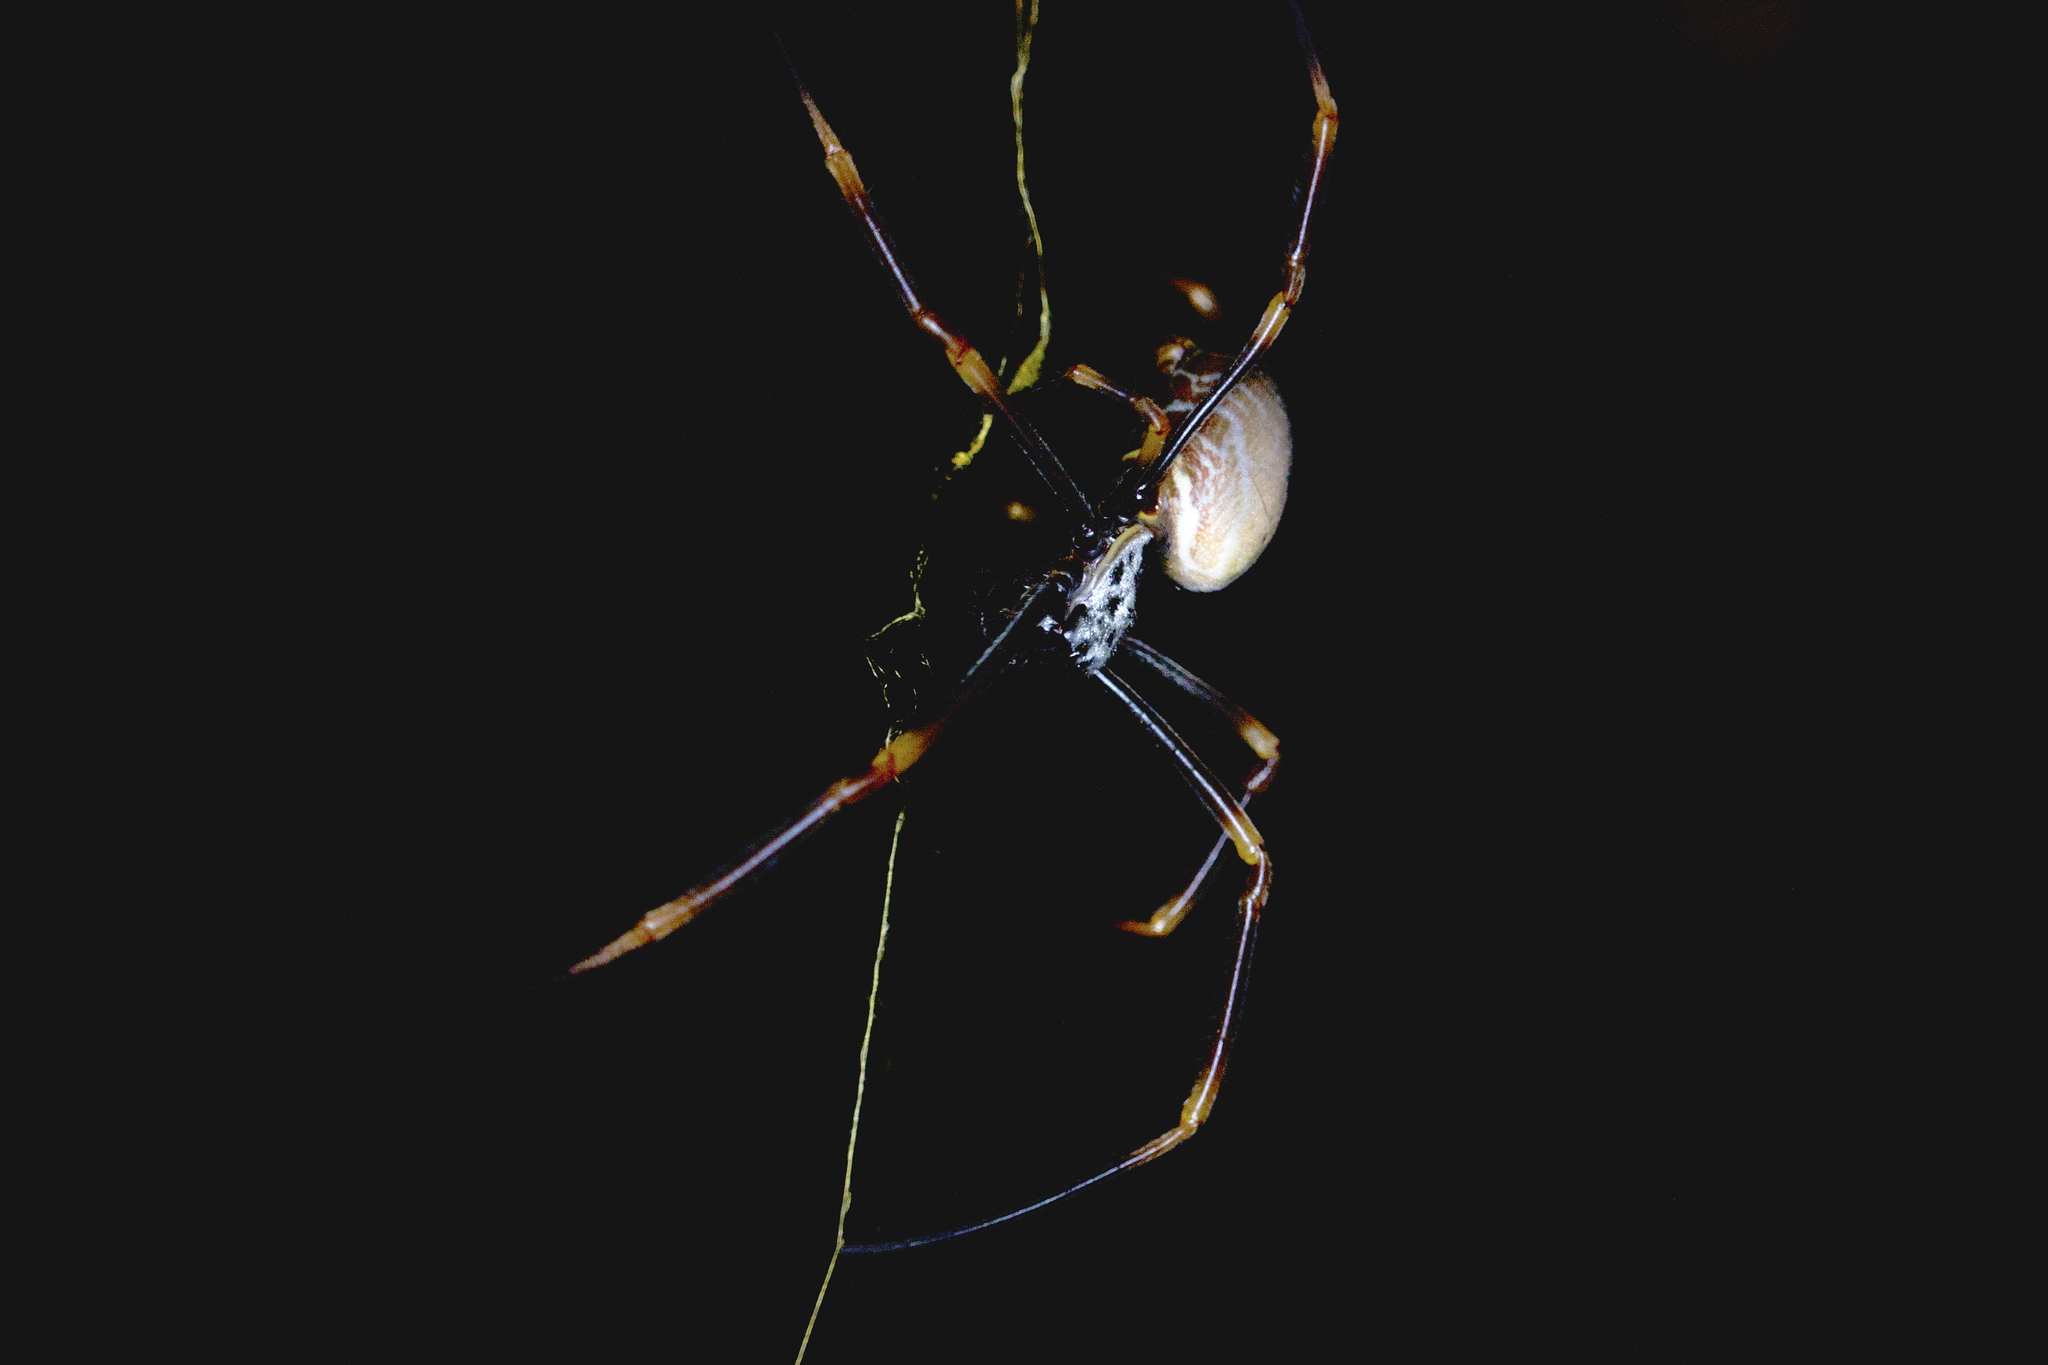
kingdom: Animalia
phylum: Arthropoda
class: Arachnida
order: Araneae
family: Araneidae
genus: Trichonephila
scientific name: Trichonephila plumipes
